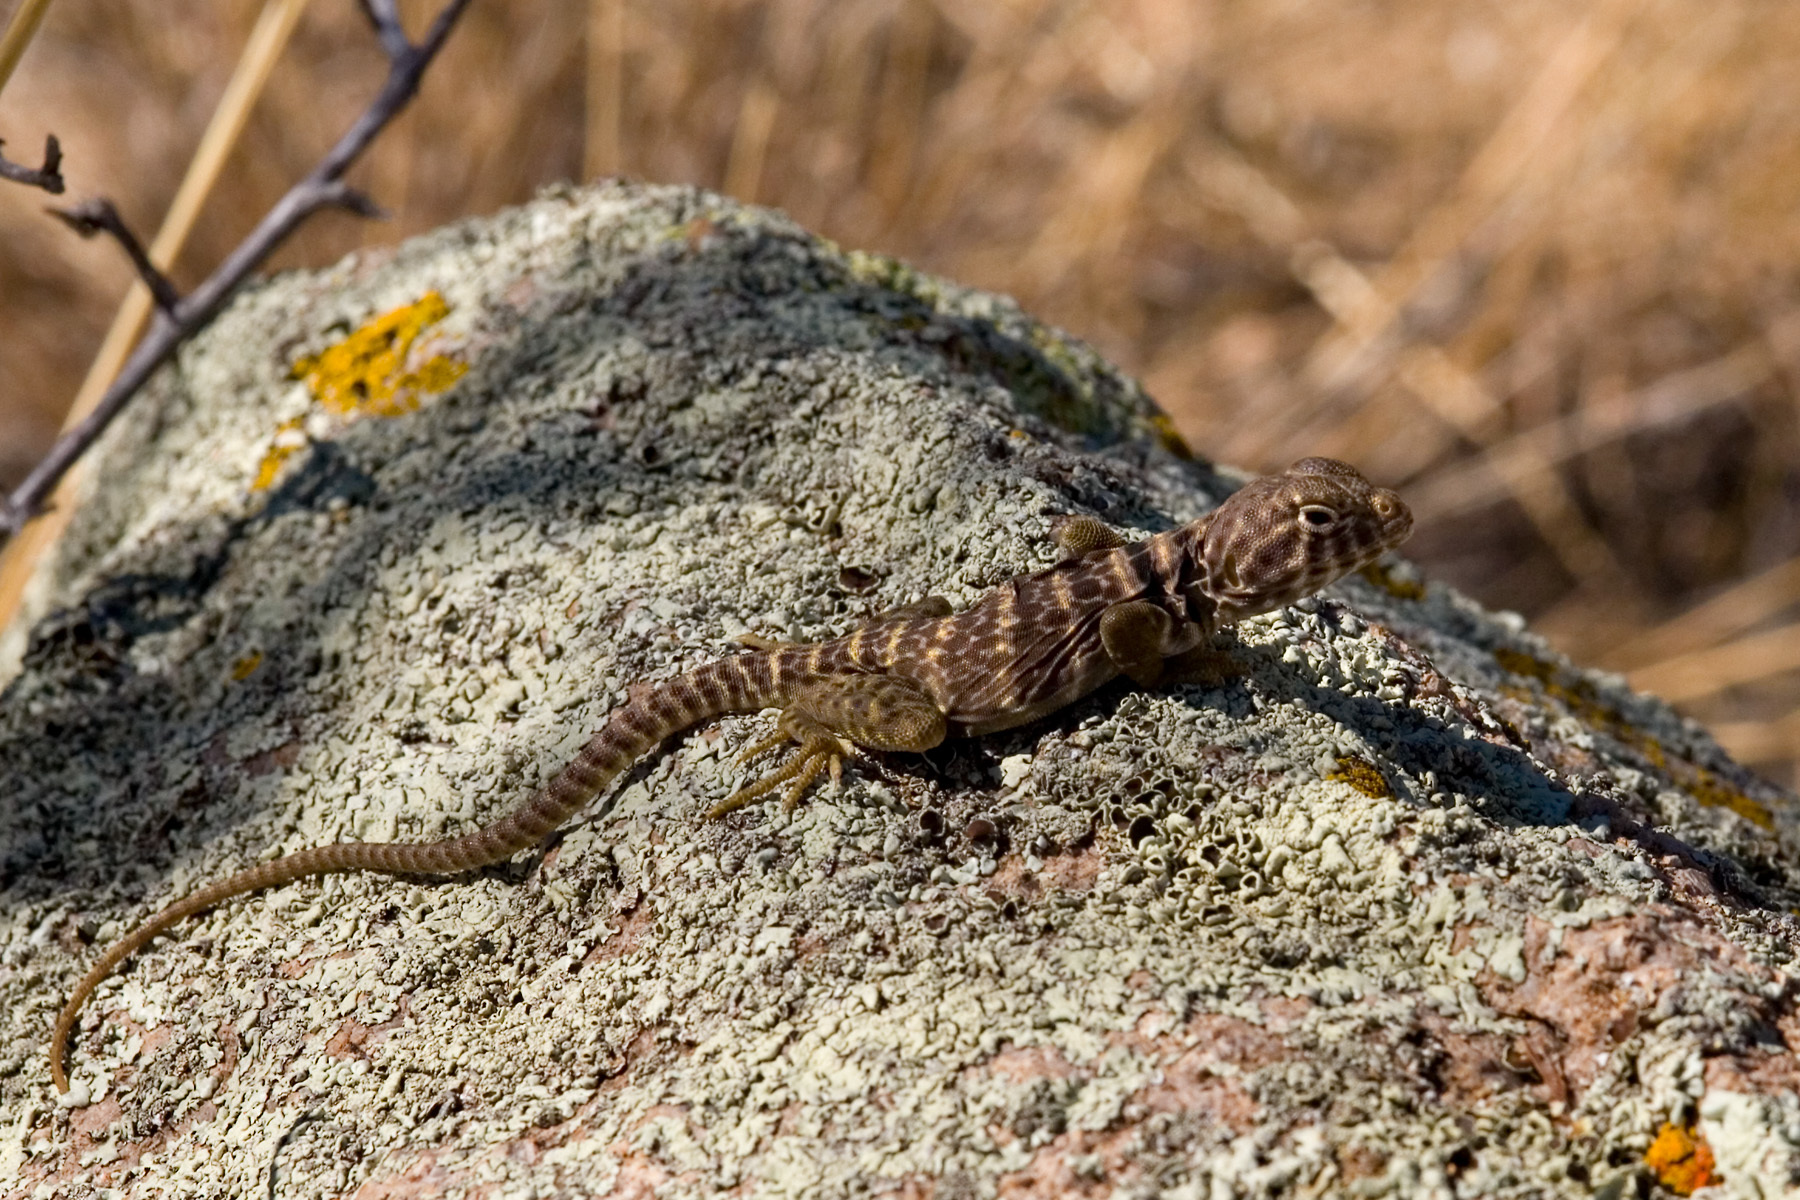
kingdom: Animalia
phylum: Chordata
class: Squamata
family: Crotaphytidae
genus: Crotaphytus
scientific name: Crotaphytus collaris
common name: Collared lizard
